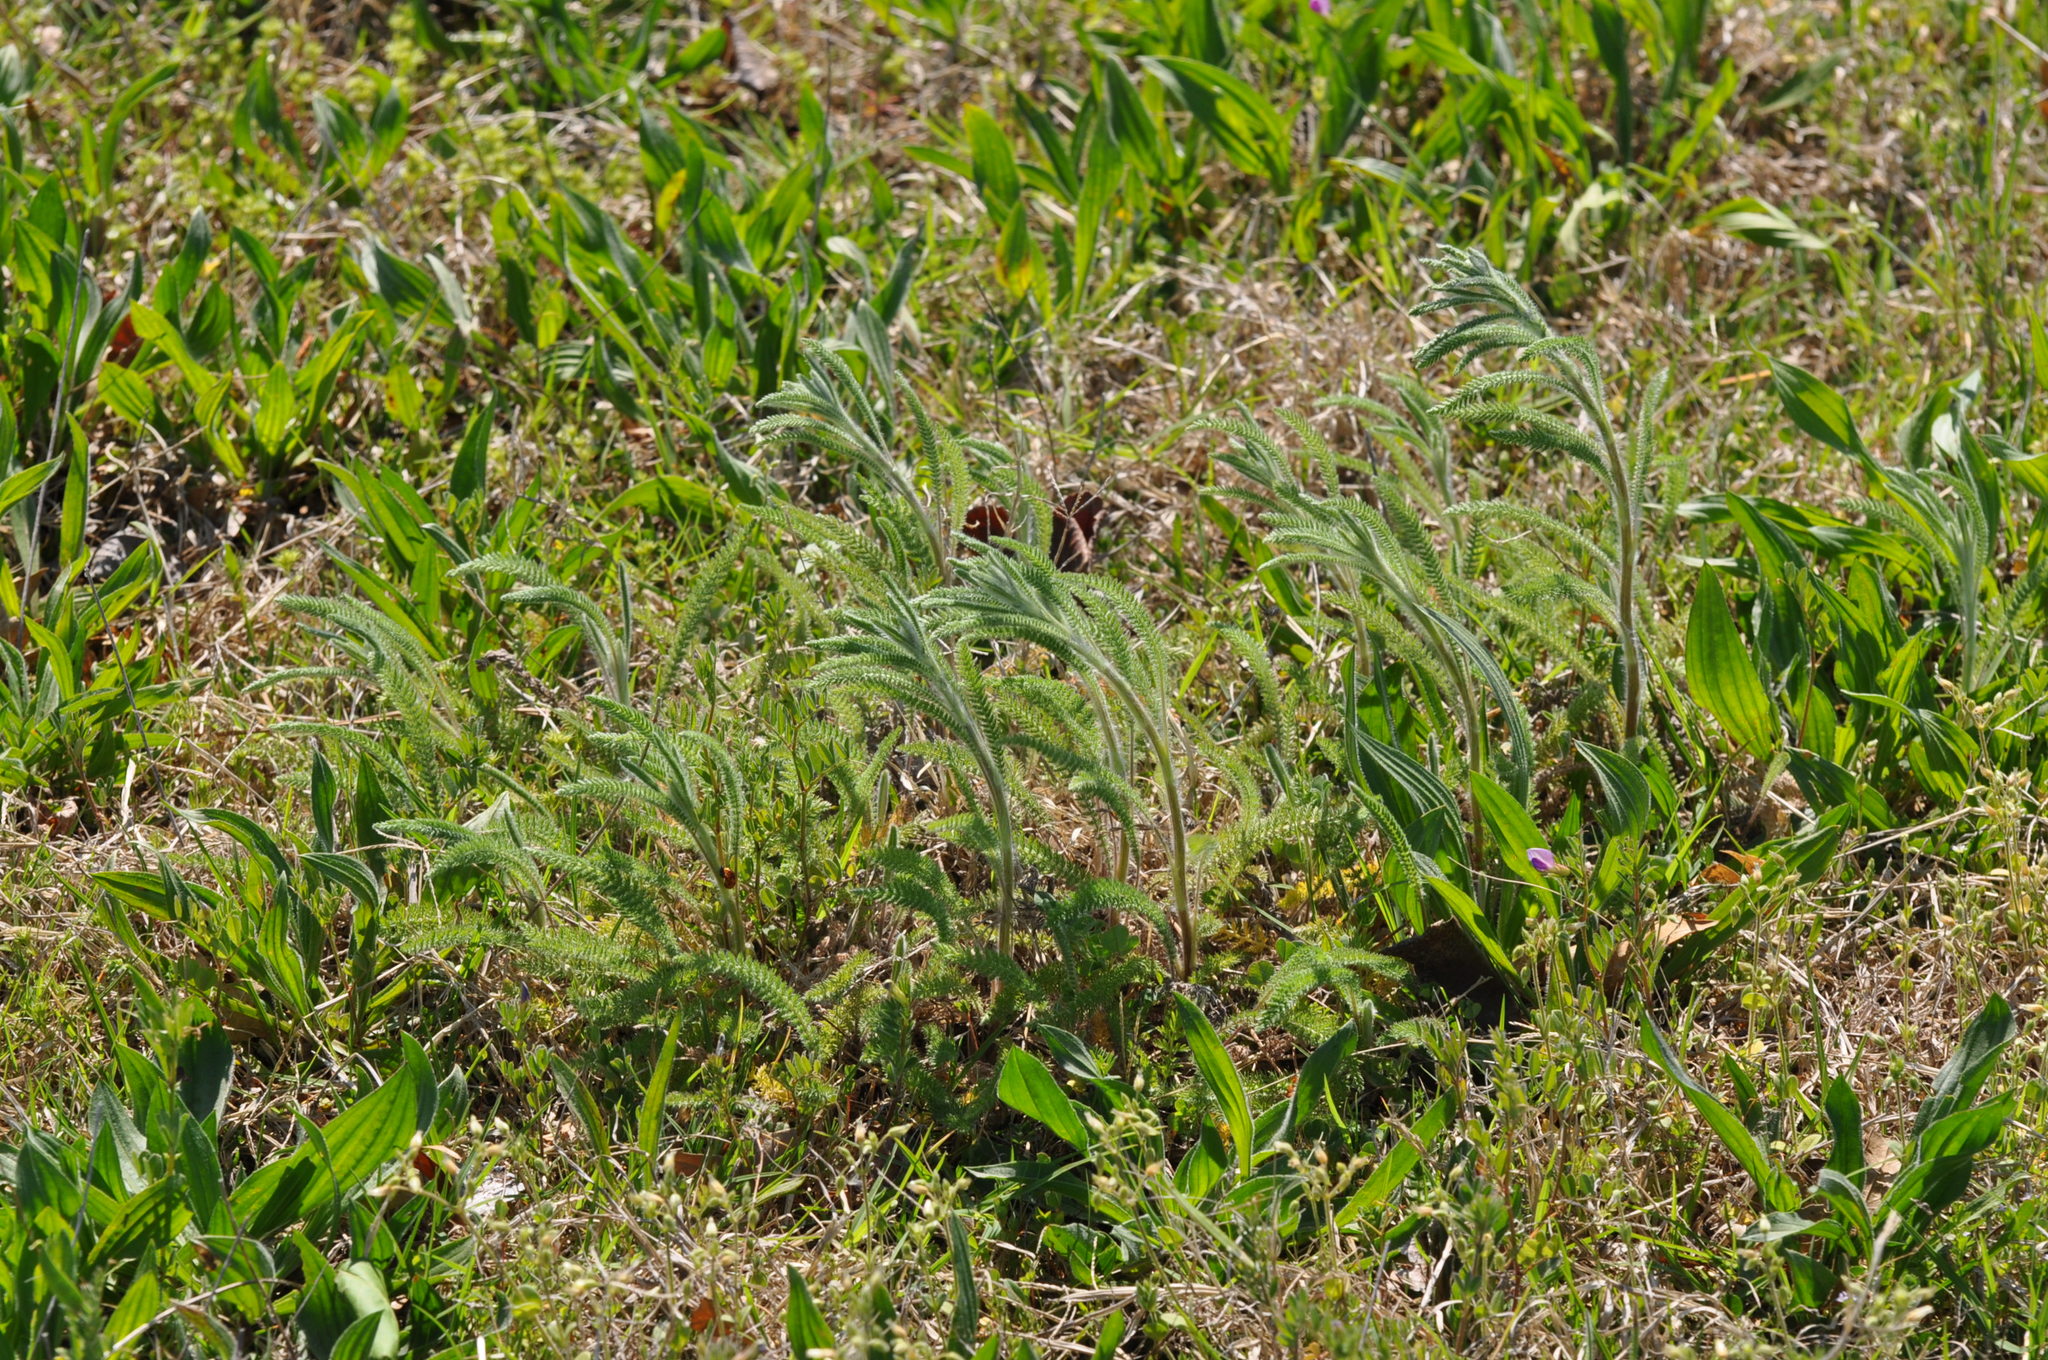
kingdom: Plantae
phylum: Tracheophyta
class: Magnoliopsida
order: Asterales
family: Asteraceae
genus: Achillea
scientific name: Achillea millefolium
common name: Yarrow
